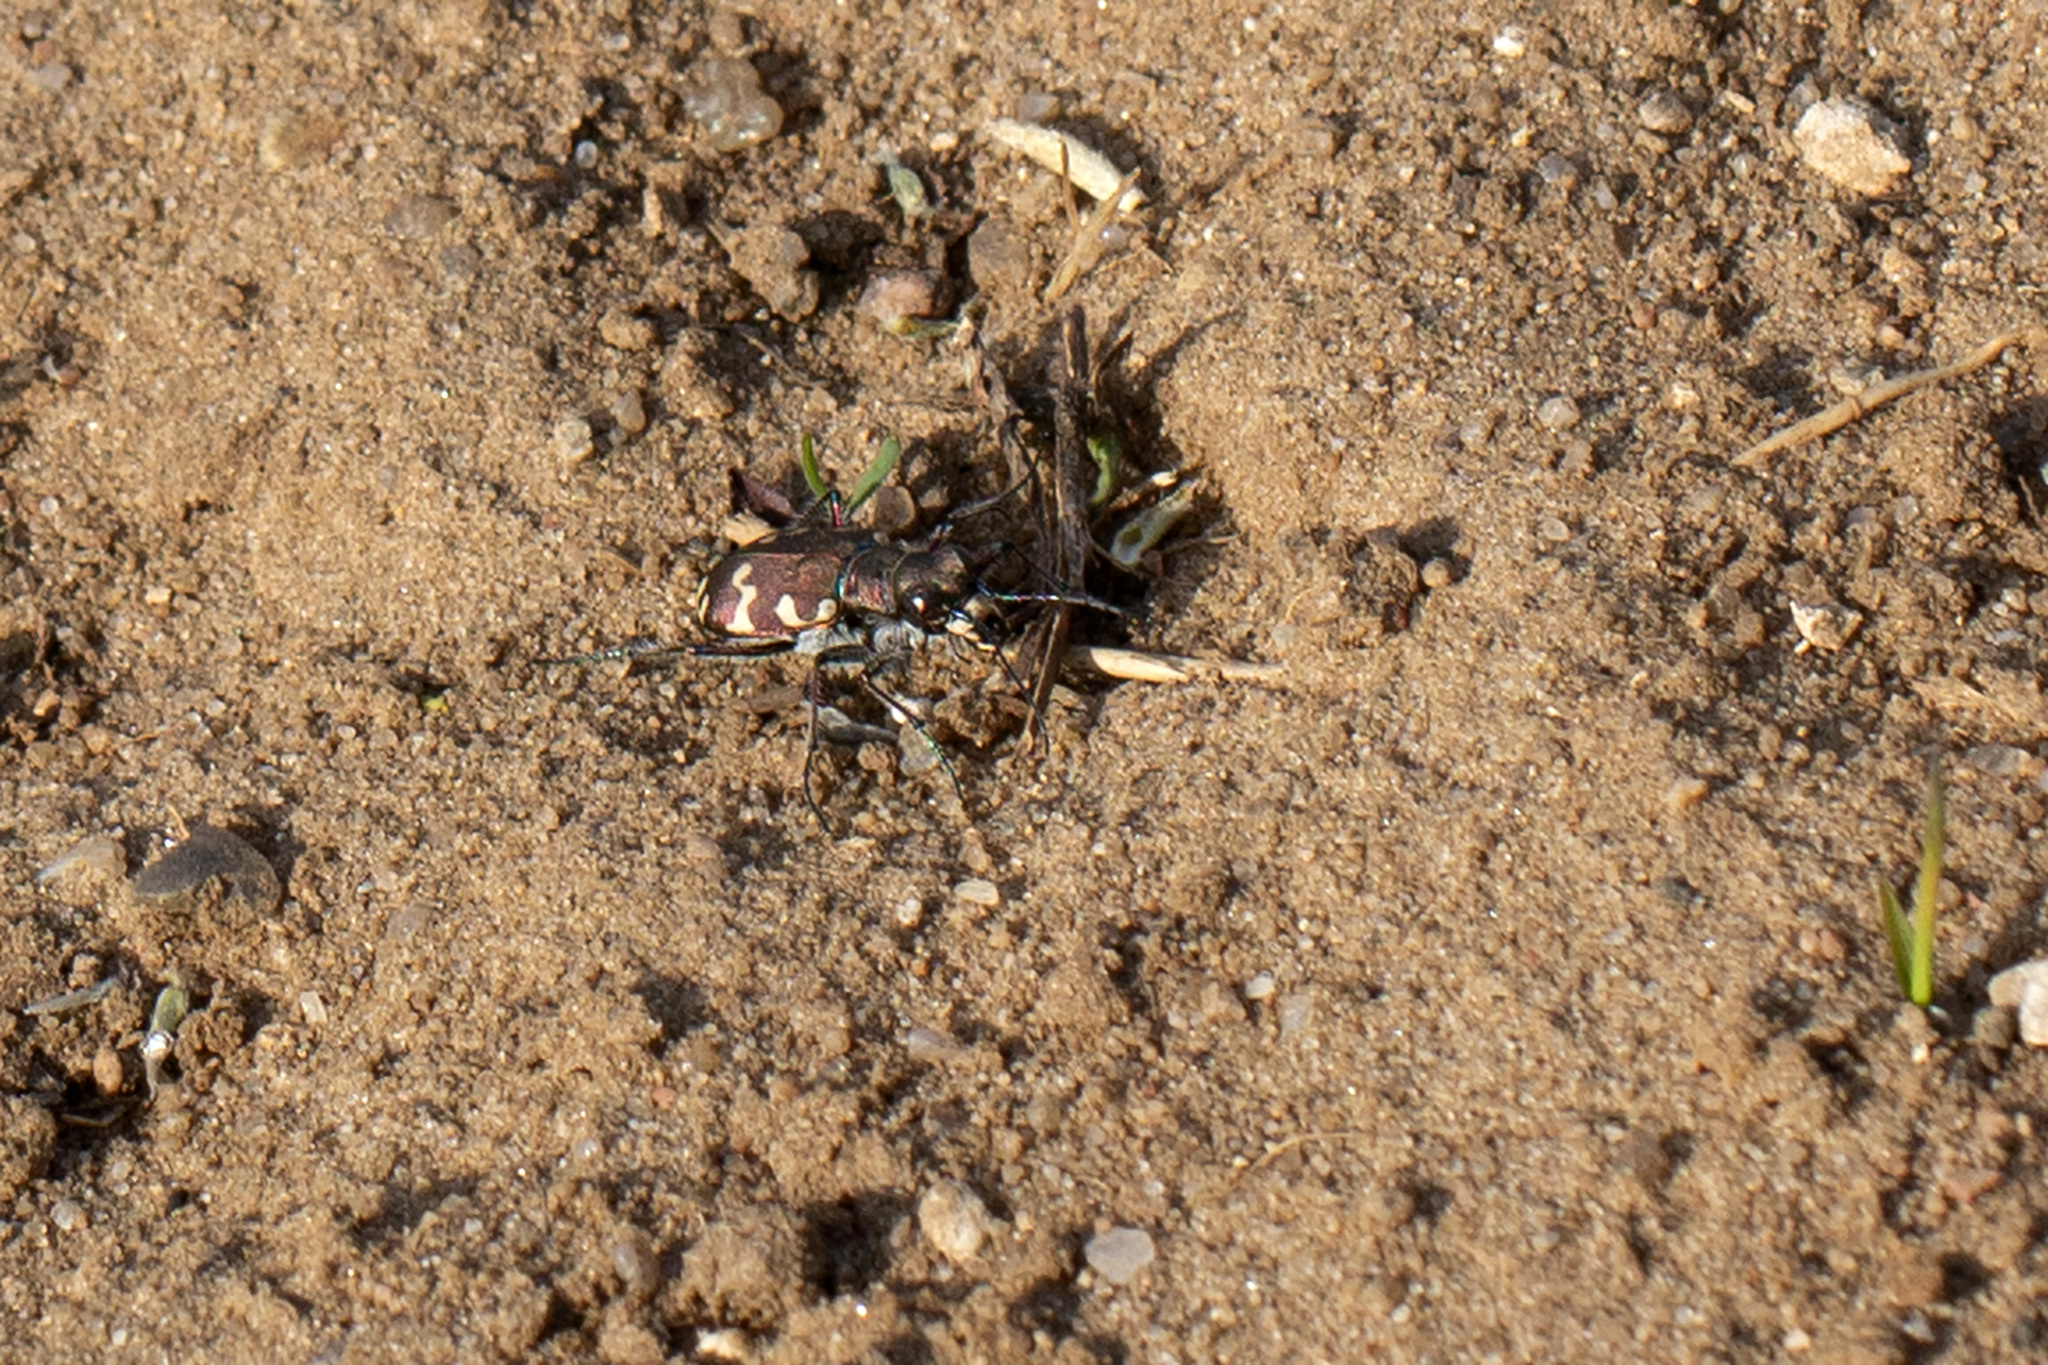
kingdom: Animalia
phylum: Arthropoda
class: Insecta
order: Coleoptera
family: Carabidae
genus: Cicindela
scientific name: Cicindela hybrida
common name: Northern dune tiger beetle
